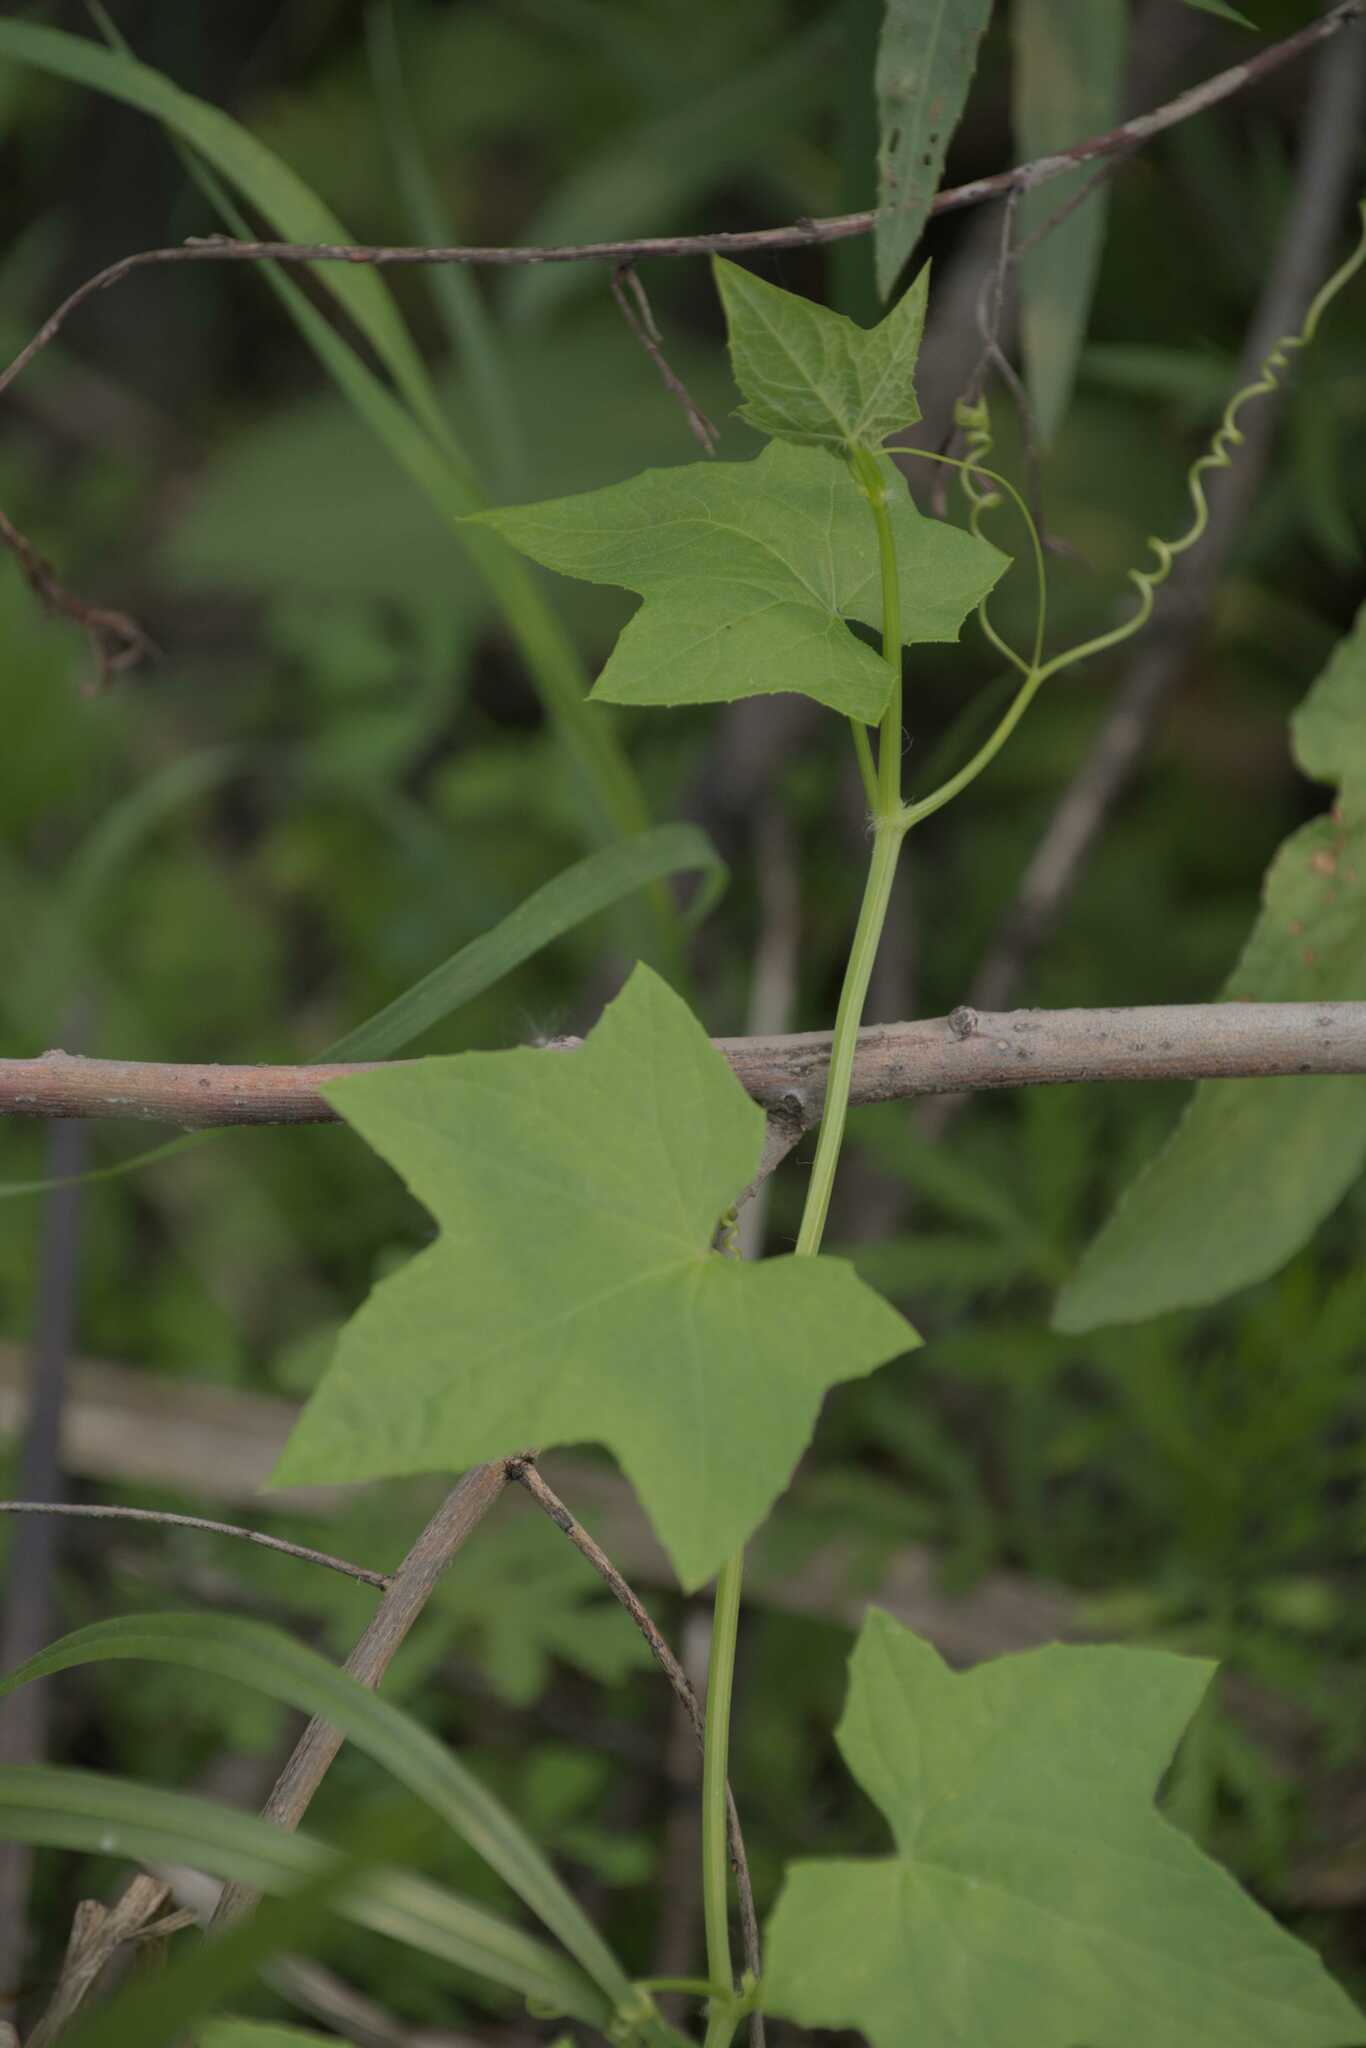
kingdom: Plantae
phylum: Tracheophyta
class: Magnoliopsida
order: Cucurbitales
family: Cucurbitaceae
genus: Echinocystis
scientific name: Echinocystis lobata
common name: Wild cucumber
